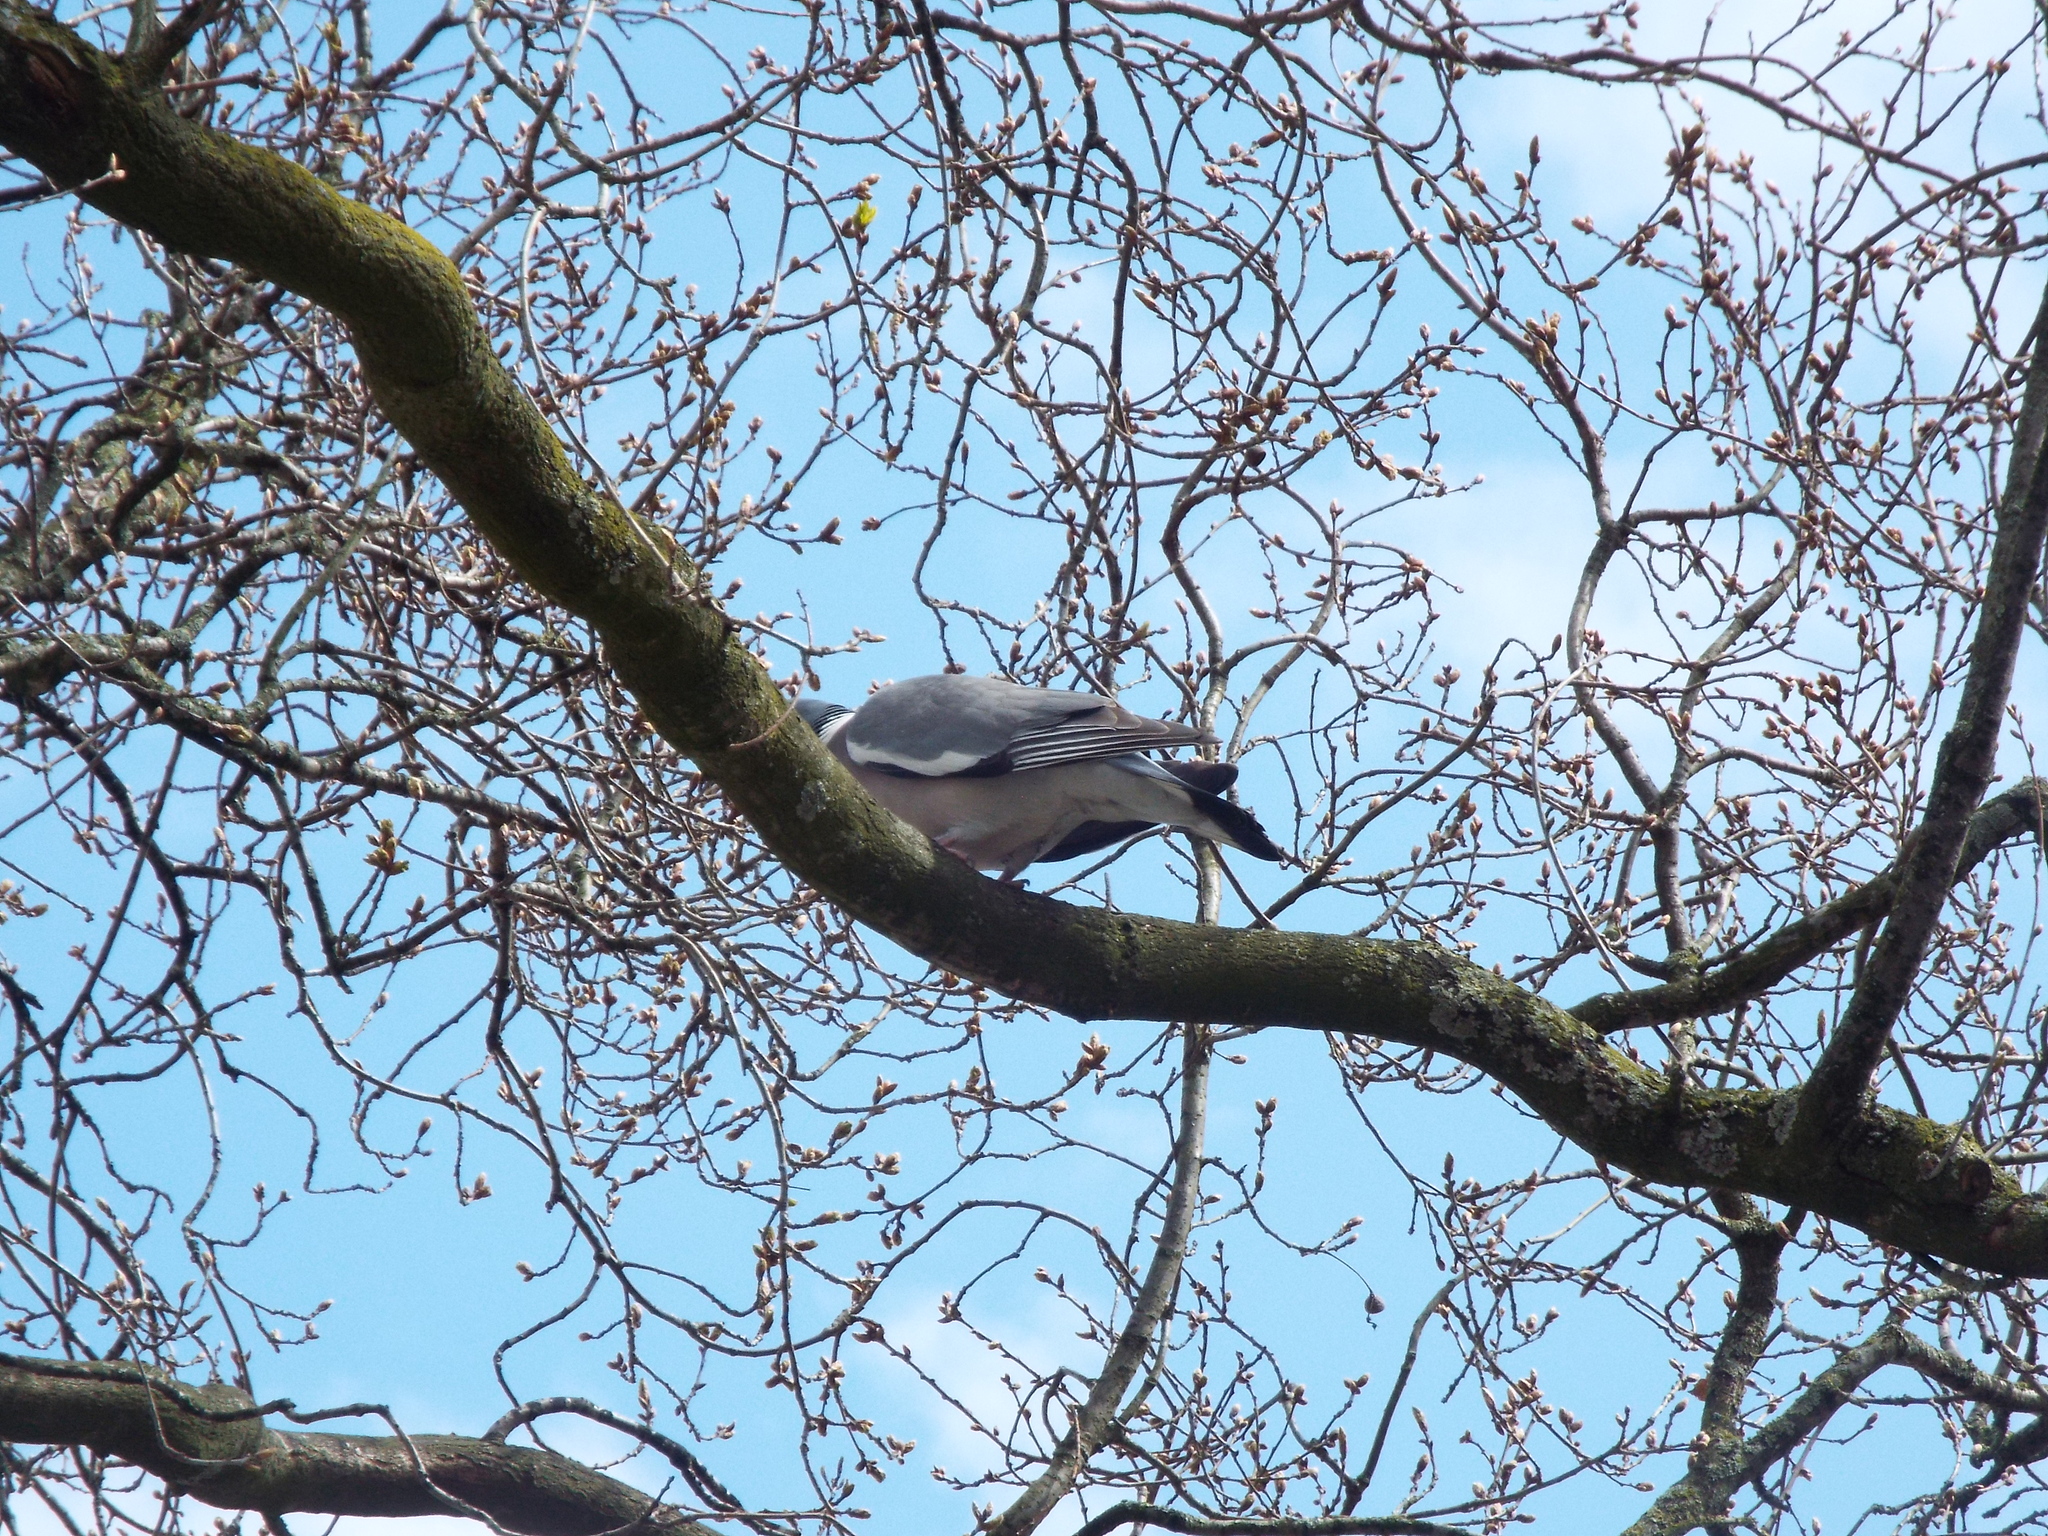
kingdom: Animalia
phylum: Chordata
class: Aves
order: Columbiformes
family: Columbidae
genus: Columba
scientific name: Columba palumbus
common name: Common wood pigeon
